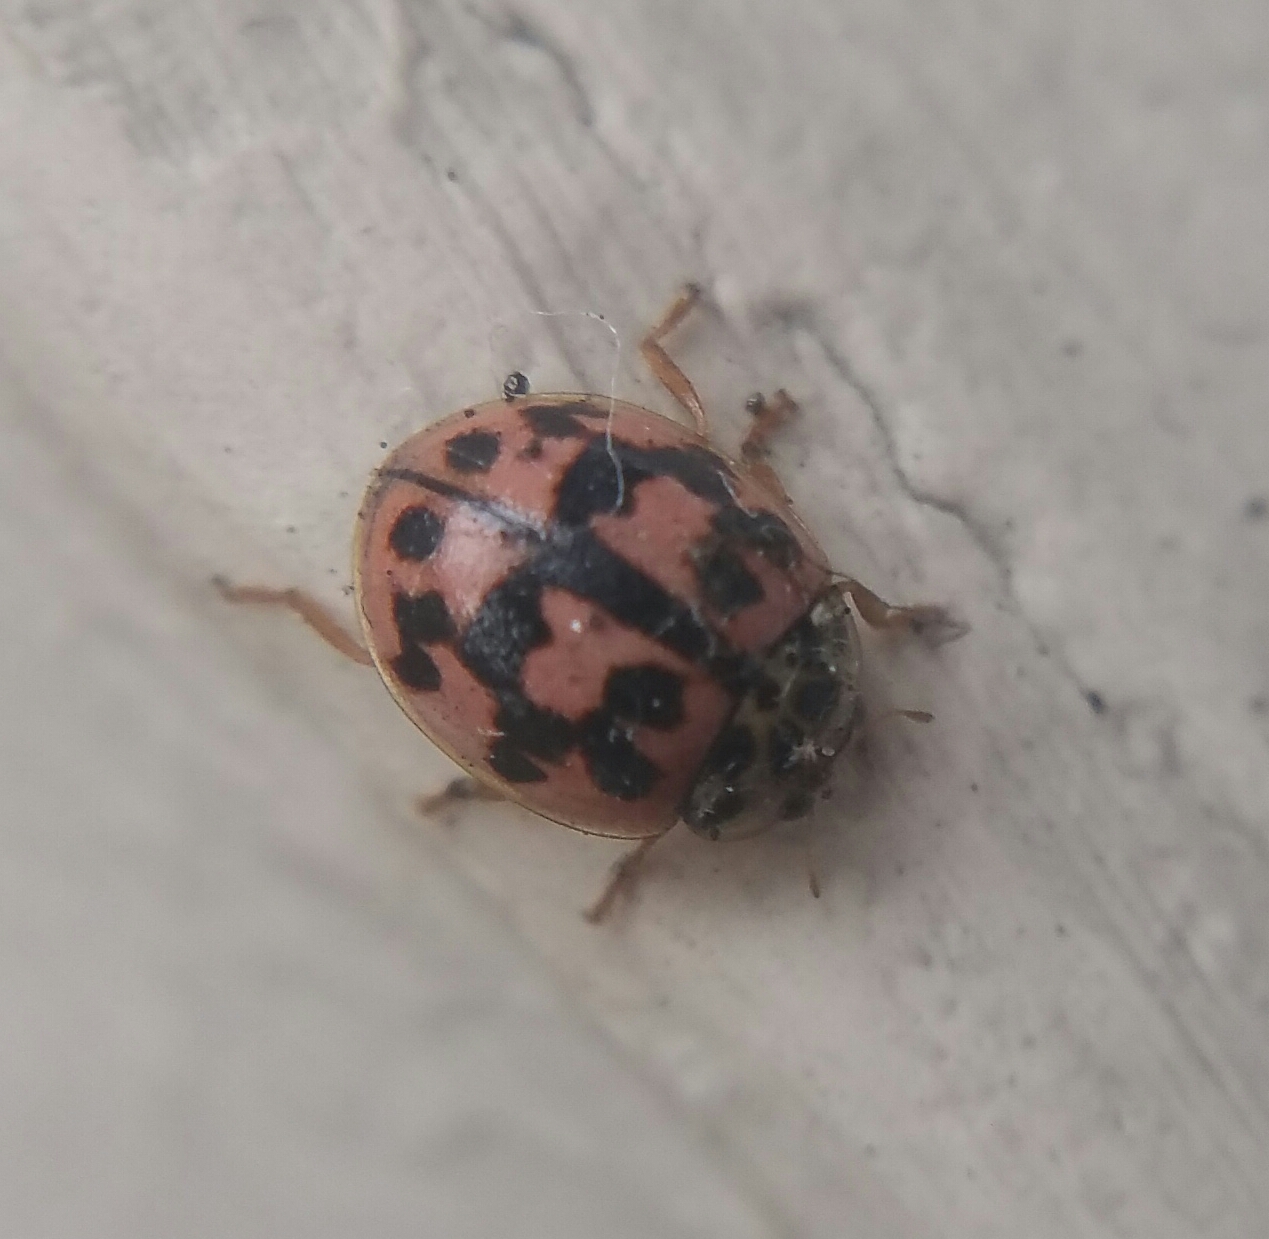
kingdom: Animalia
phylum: Arthropoda
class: Insecta
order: Coleoptera
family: Coccinellidae
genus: Oenopia
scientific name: Oenopia conglobata
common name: Ladybird beetle
